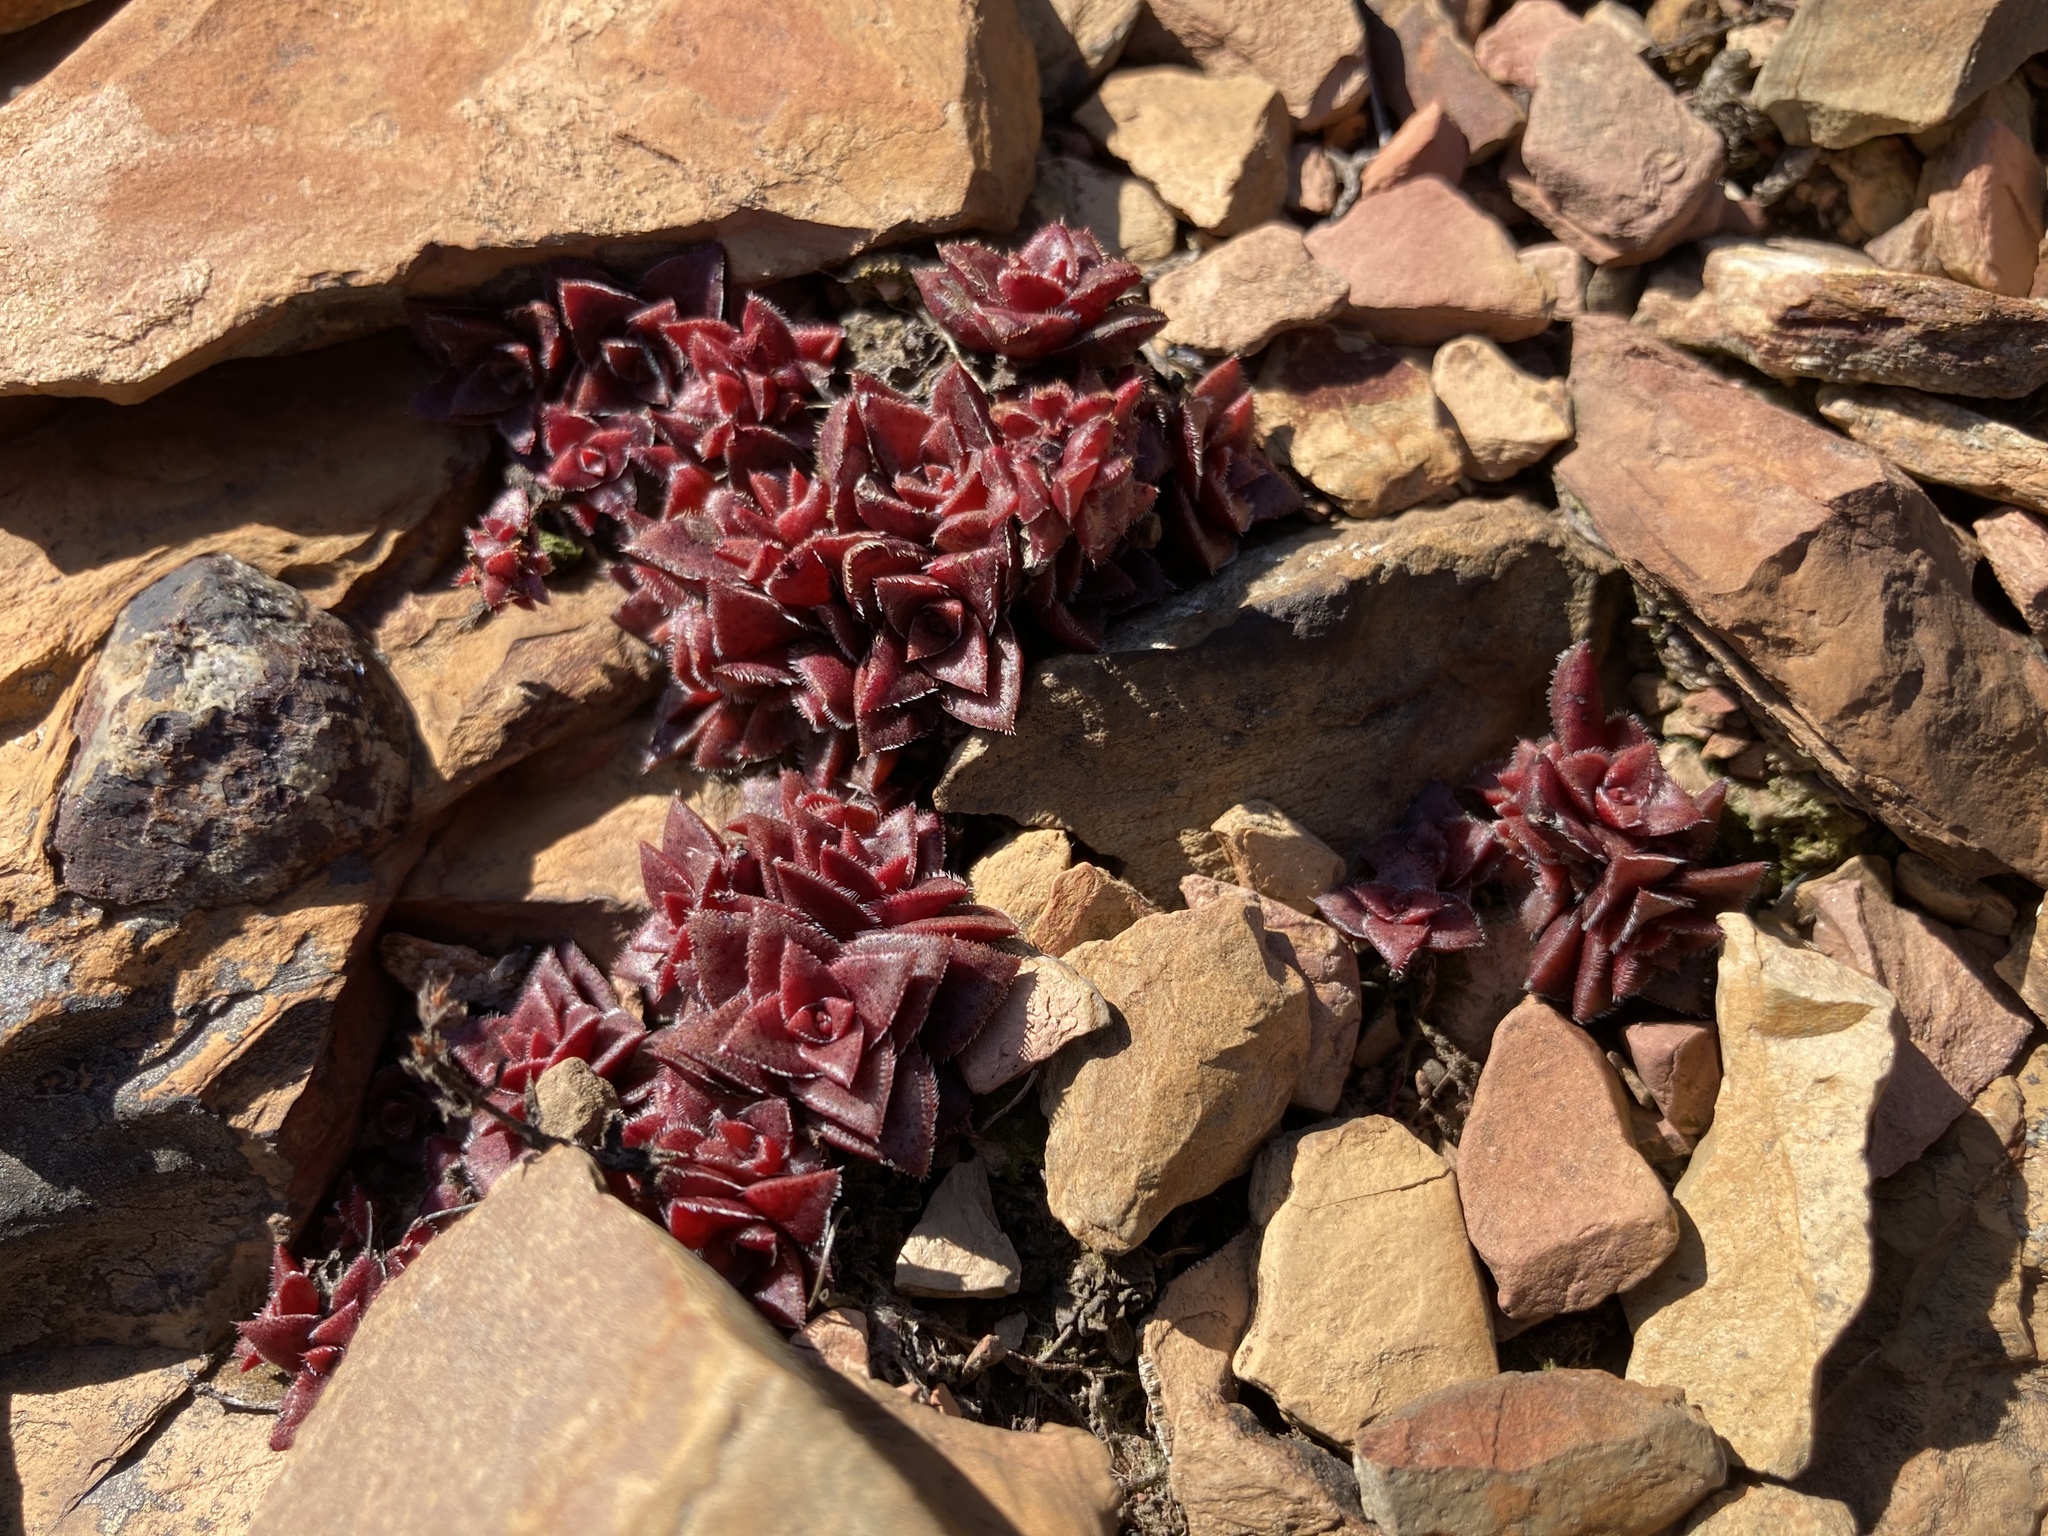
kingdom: Plantae
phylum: Tracheophyta
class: Magnoliopsida
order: Saxifragales
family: Crassulaceae
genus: Crassula
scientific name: Crassula capitella
